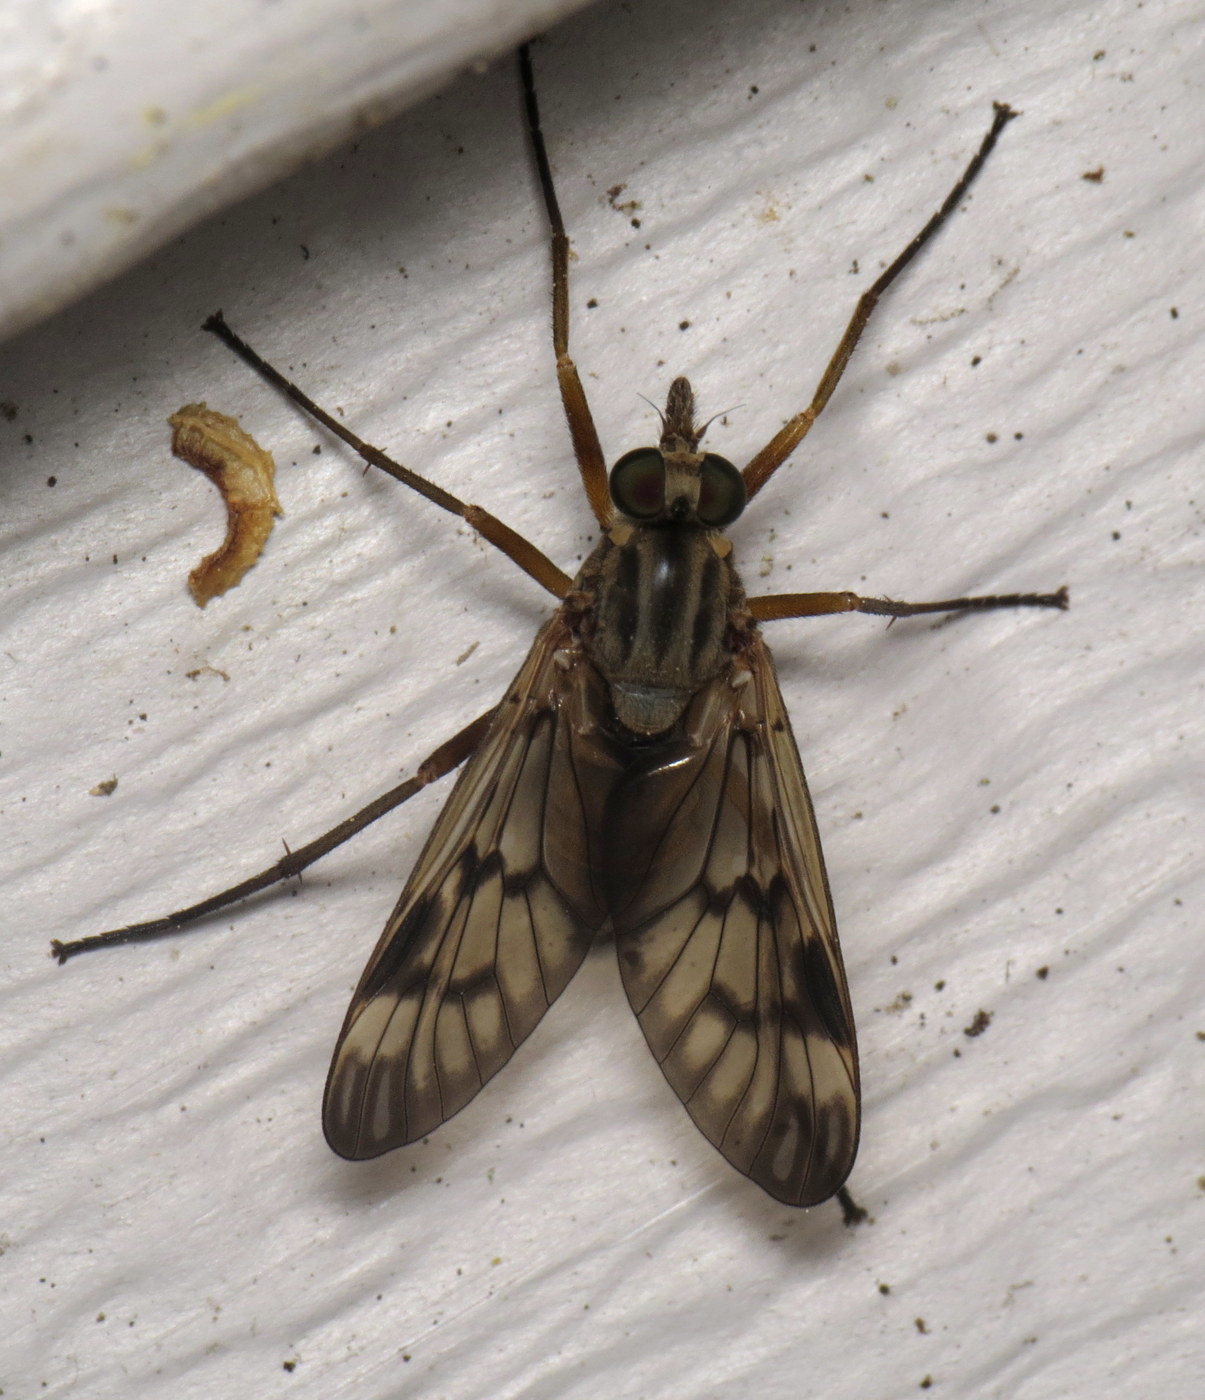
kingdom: Animalia
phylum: Arthropoda
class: Insecta
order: Diptera
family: Rhagionidae
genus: Rhagio
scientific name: Rhagio scolopacea
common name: Downlooker snipefly
